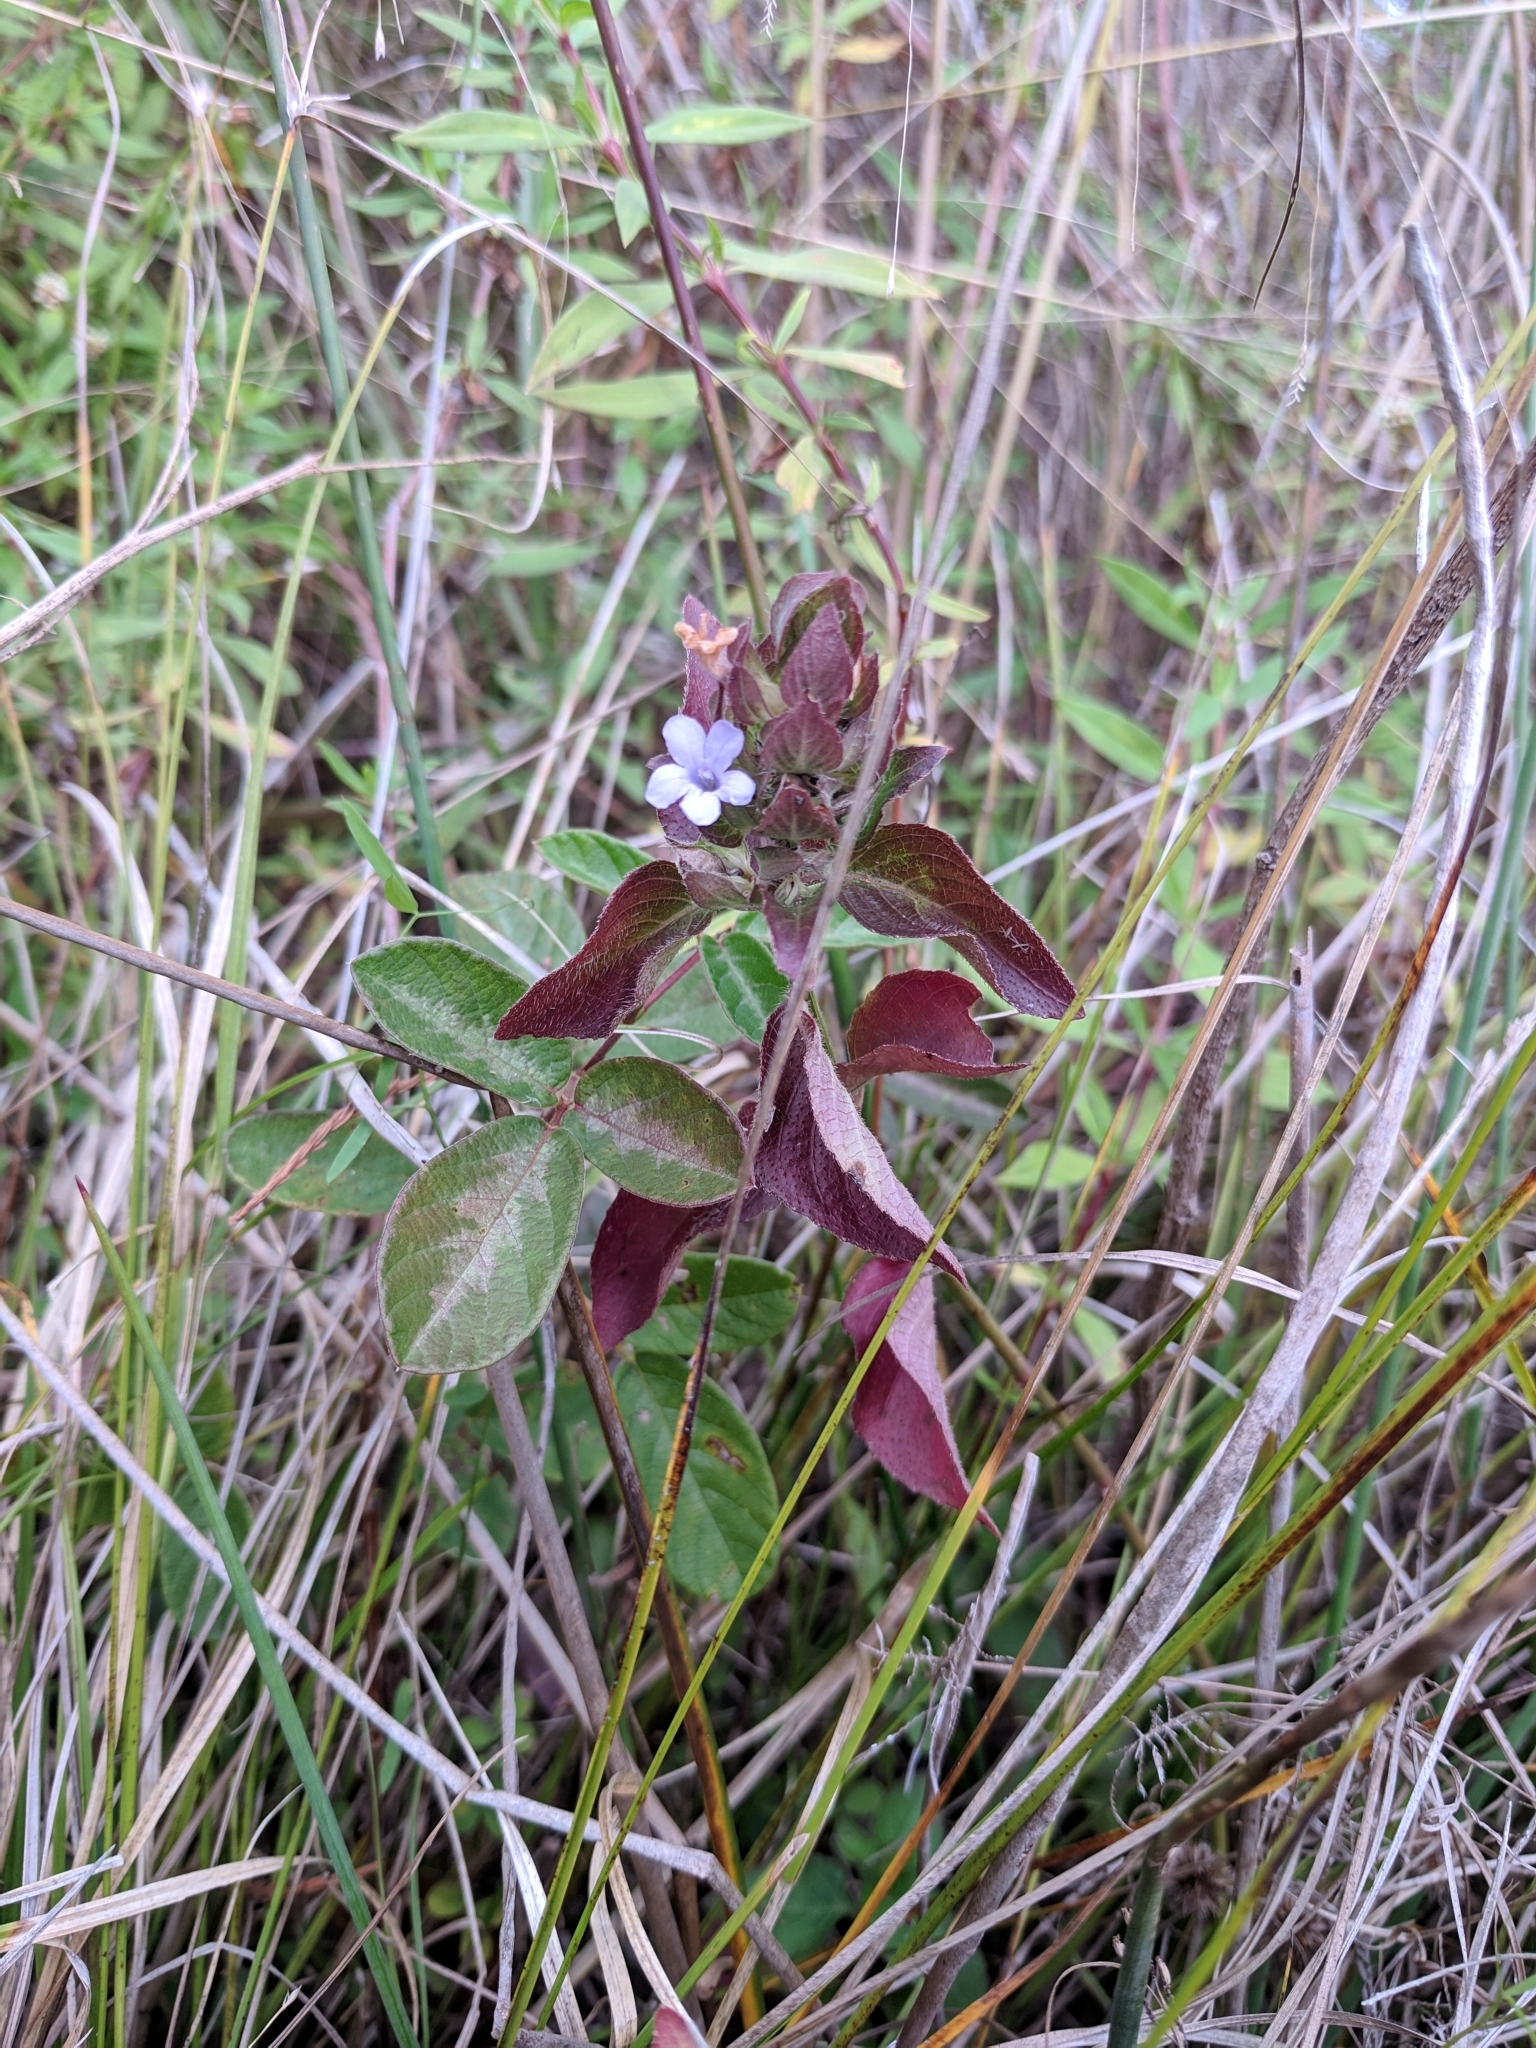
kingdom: Plantae
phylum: Tracheophyta
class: Magnoliopsida
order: Lamiales
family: Acanthaceae
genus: Ruellia
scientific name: Ruellia blechum
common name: Browne's blechum
